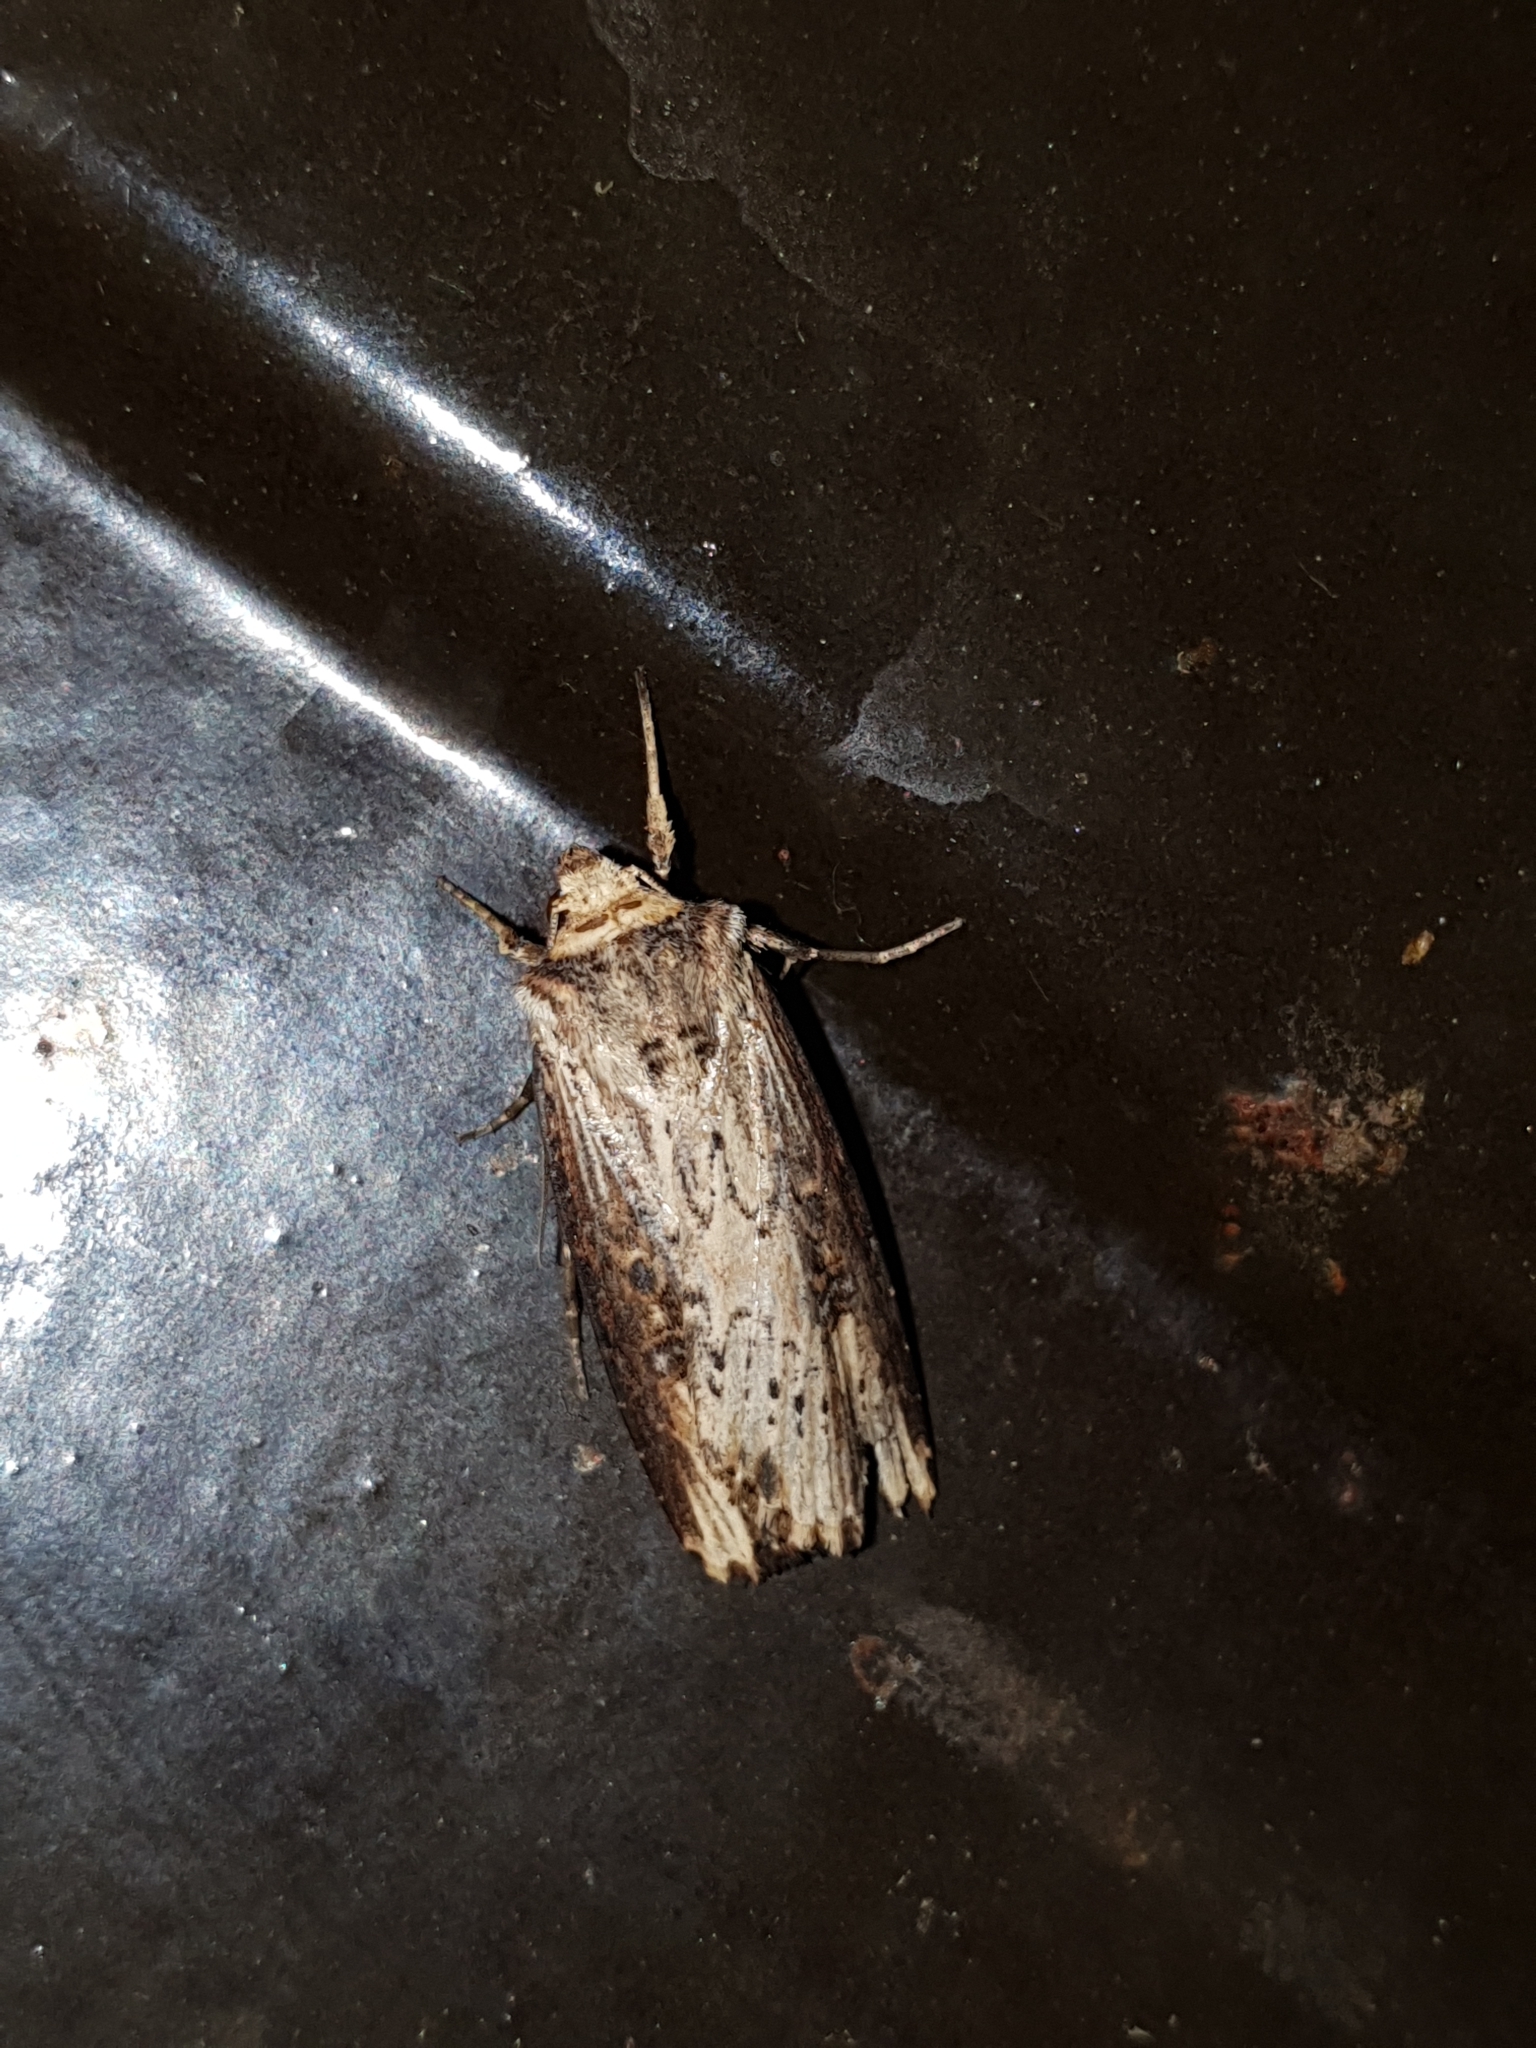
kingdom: Animalia
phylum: Arthropoda
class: Insecta
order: Lepidoptera
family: Noctuidae
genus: Axylia
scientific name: Axylia putris
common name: Flame
